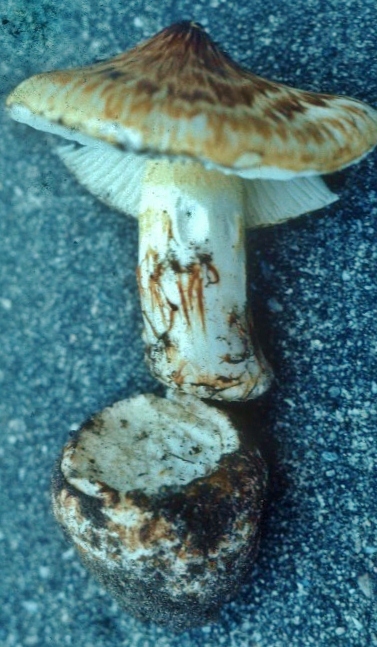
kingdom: Fungi
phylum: Basidiomycota
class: Agaricomycetes
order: Agaricales
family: Tricholomataceae
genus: Squamanita
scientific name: Squamanita umbonata
